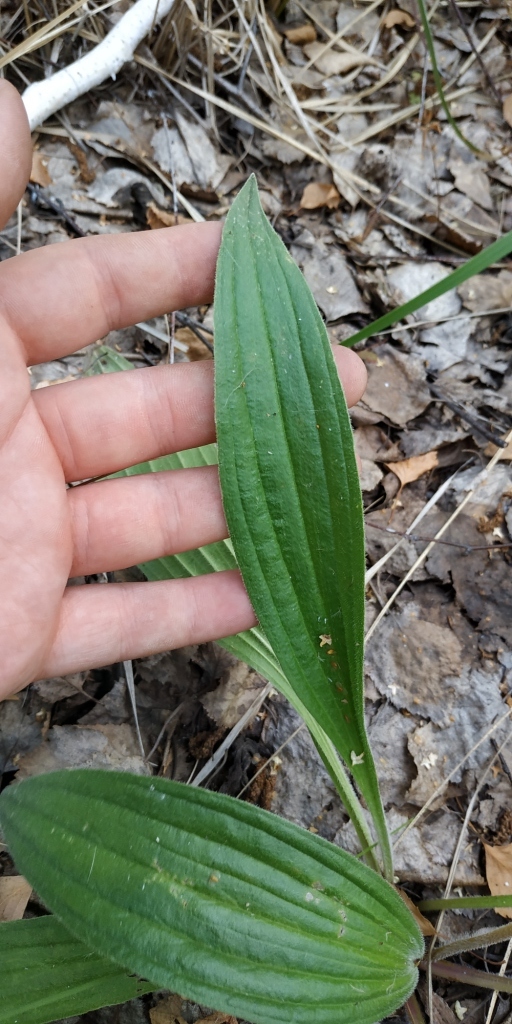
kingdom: Plantae
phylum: Tracheophyta
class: Magnoliopsida
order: Lamiales
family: Plantaginaceae
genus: Plantago
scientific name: Plantago urvillei
